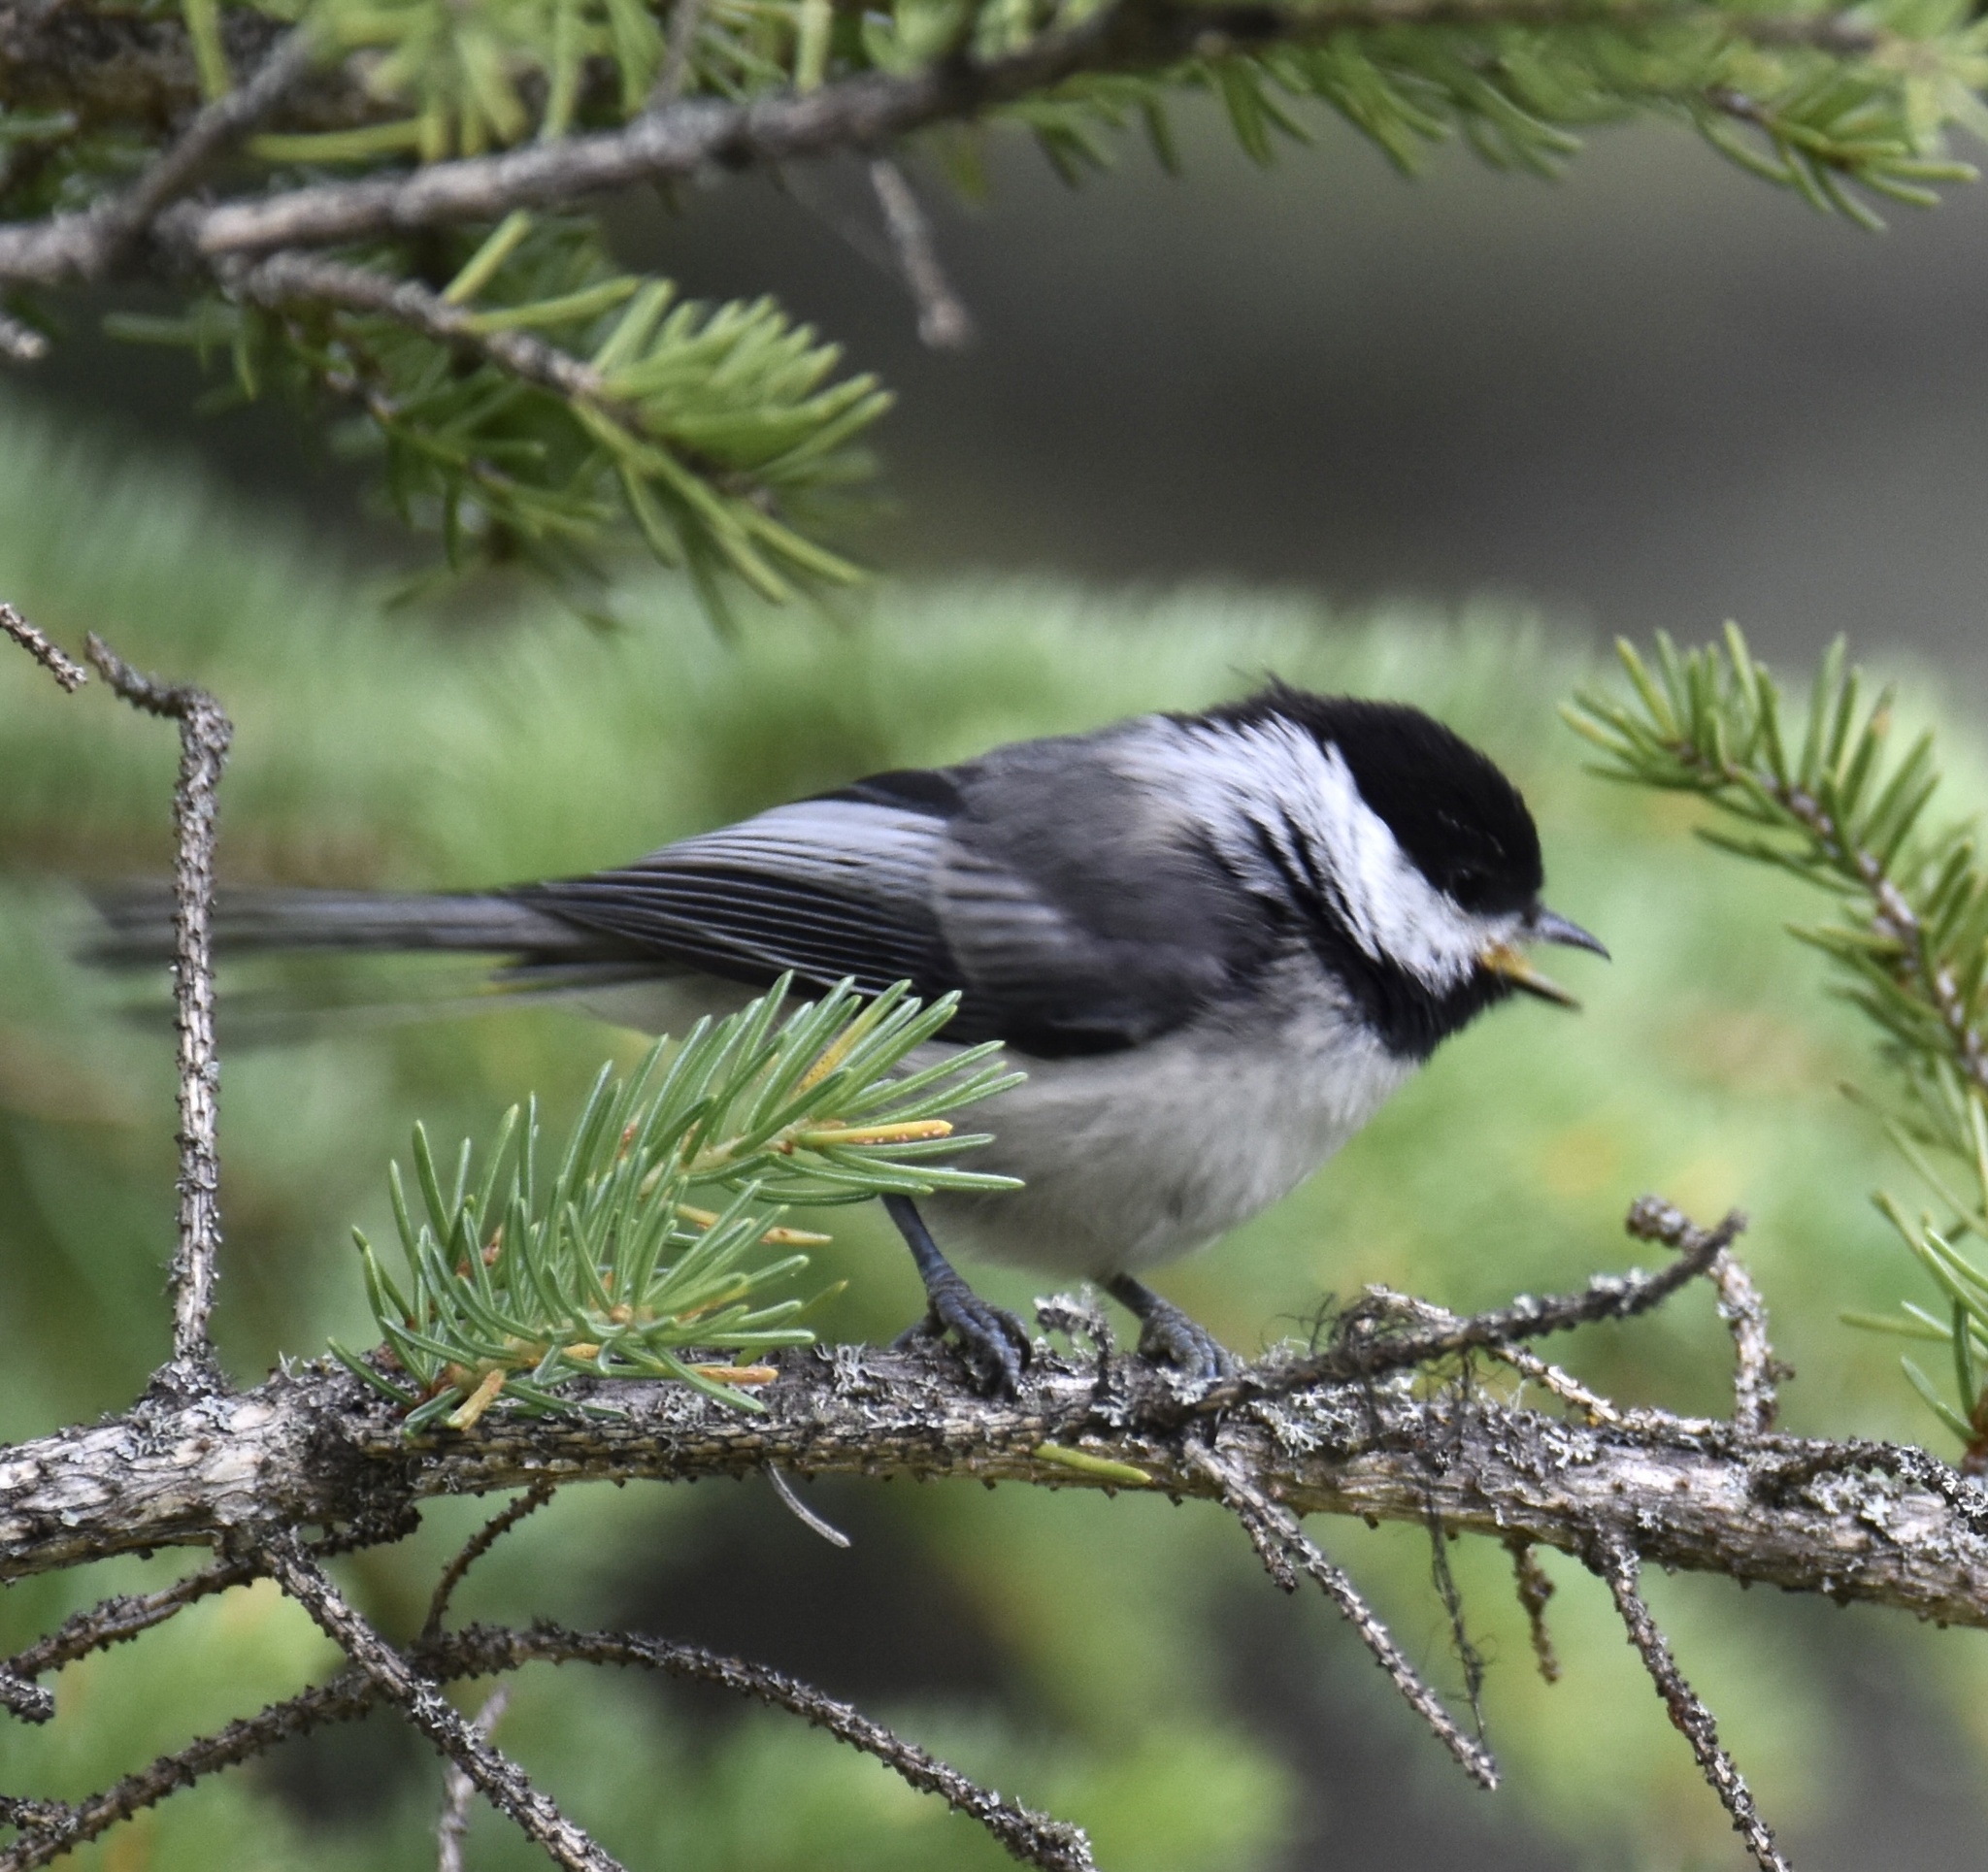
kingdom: Animalia
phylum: Chordata
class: Aves
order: Passeriformes
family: Paridae
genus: Poecile
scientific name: Poecile atricapillus
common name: Black-capped chickadee
